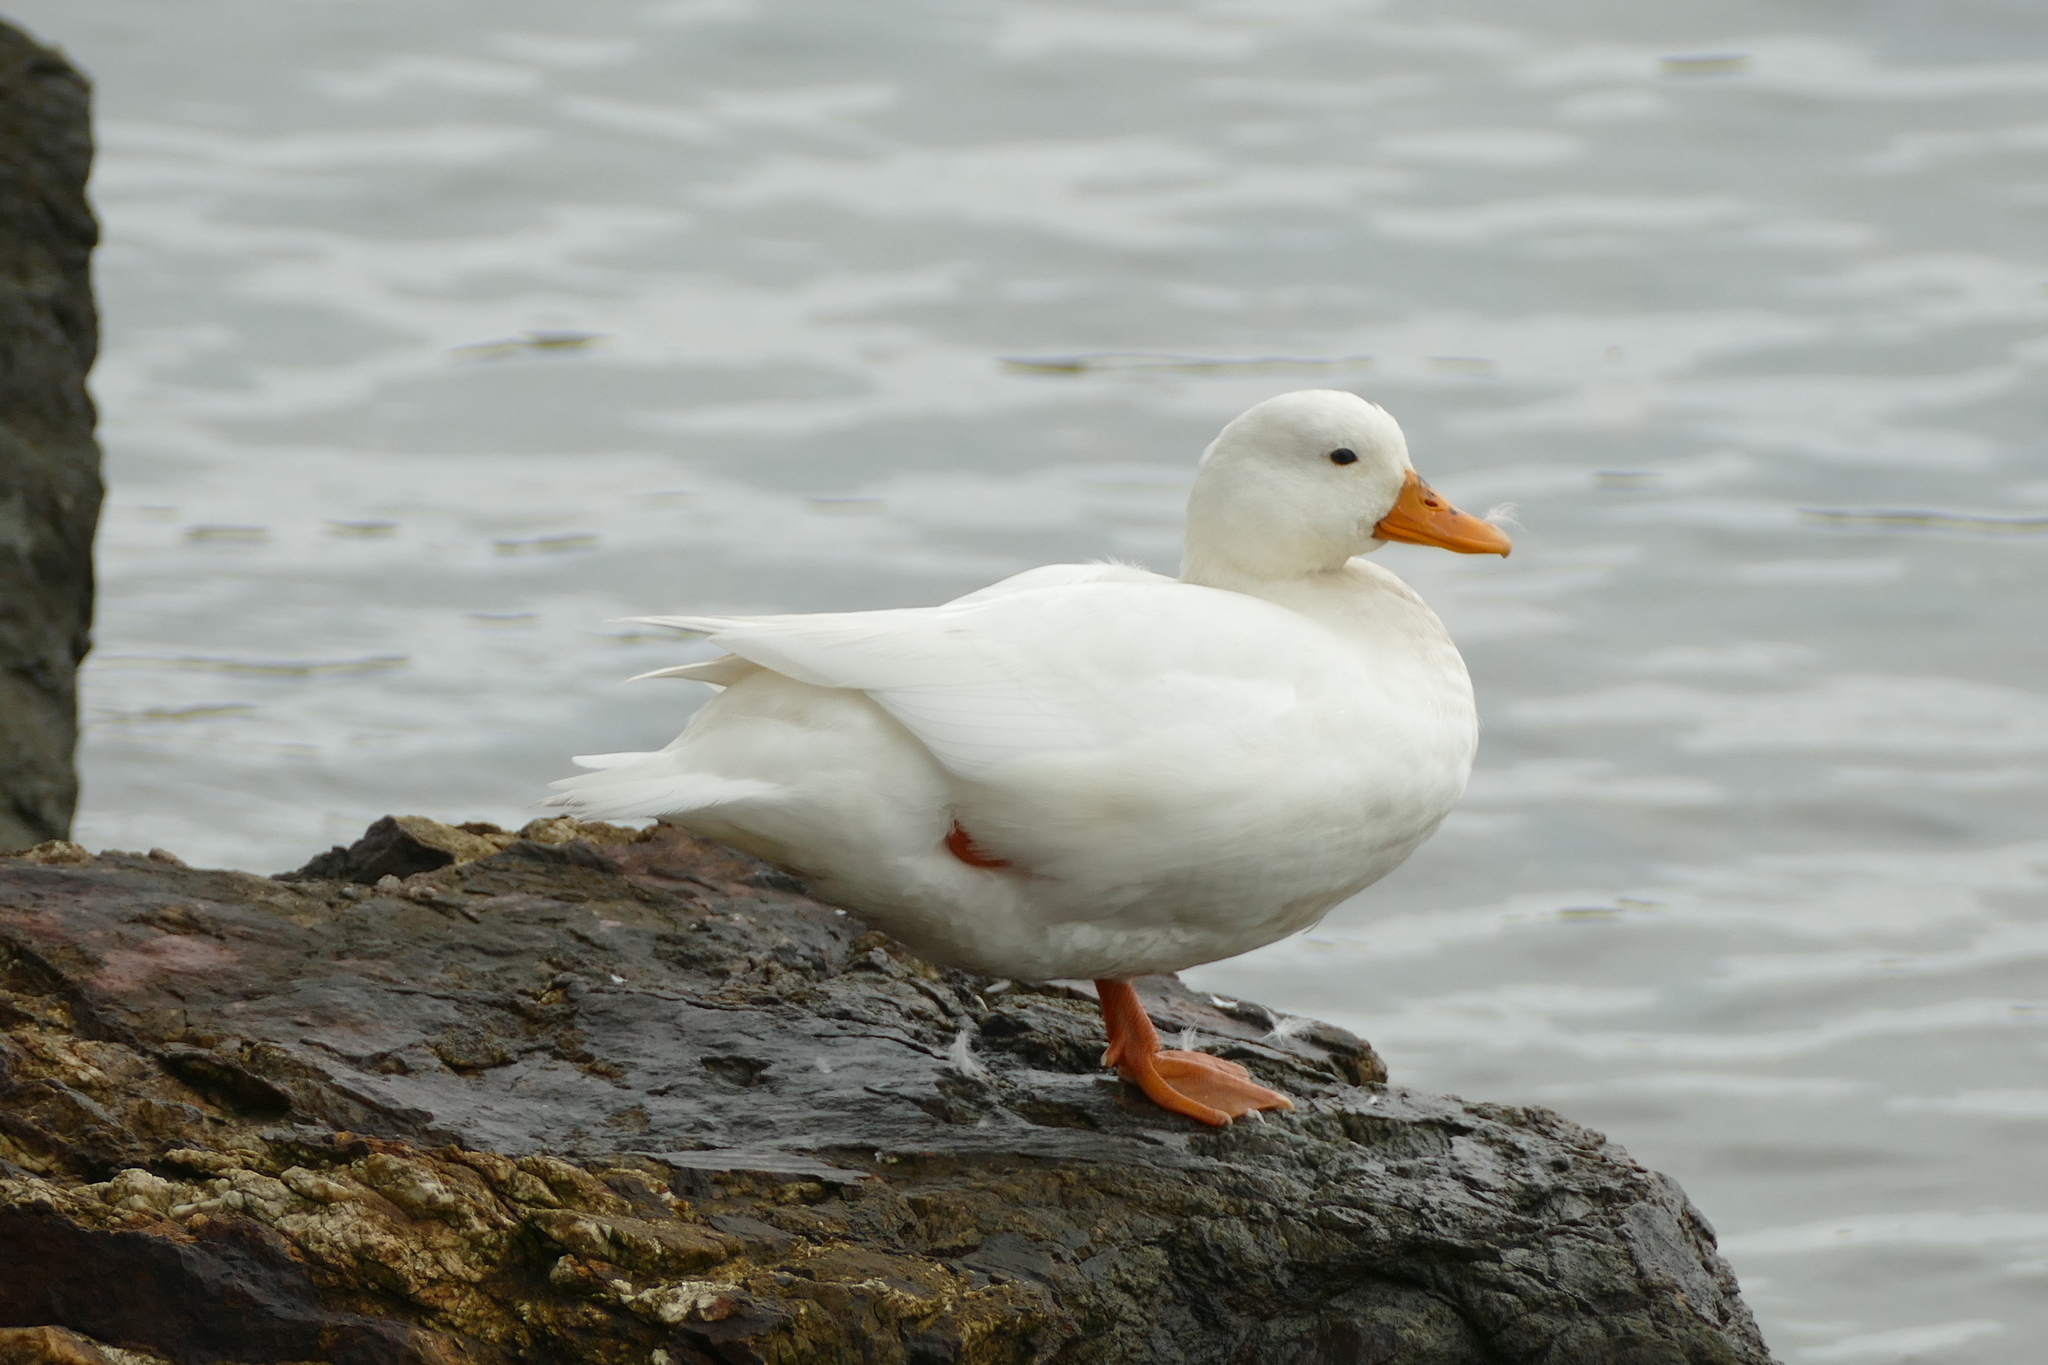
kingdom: Animalia
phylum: Chordata
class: Aves
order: Anseriformes
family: Anatidae
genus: Anas
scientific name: Anas platyrhynchos
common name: Mallard
